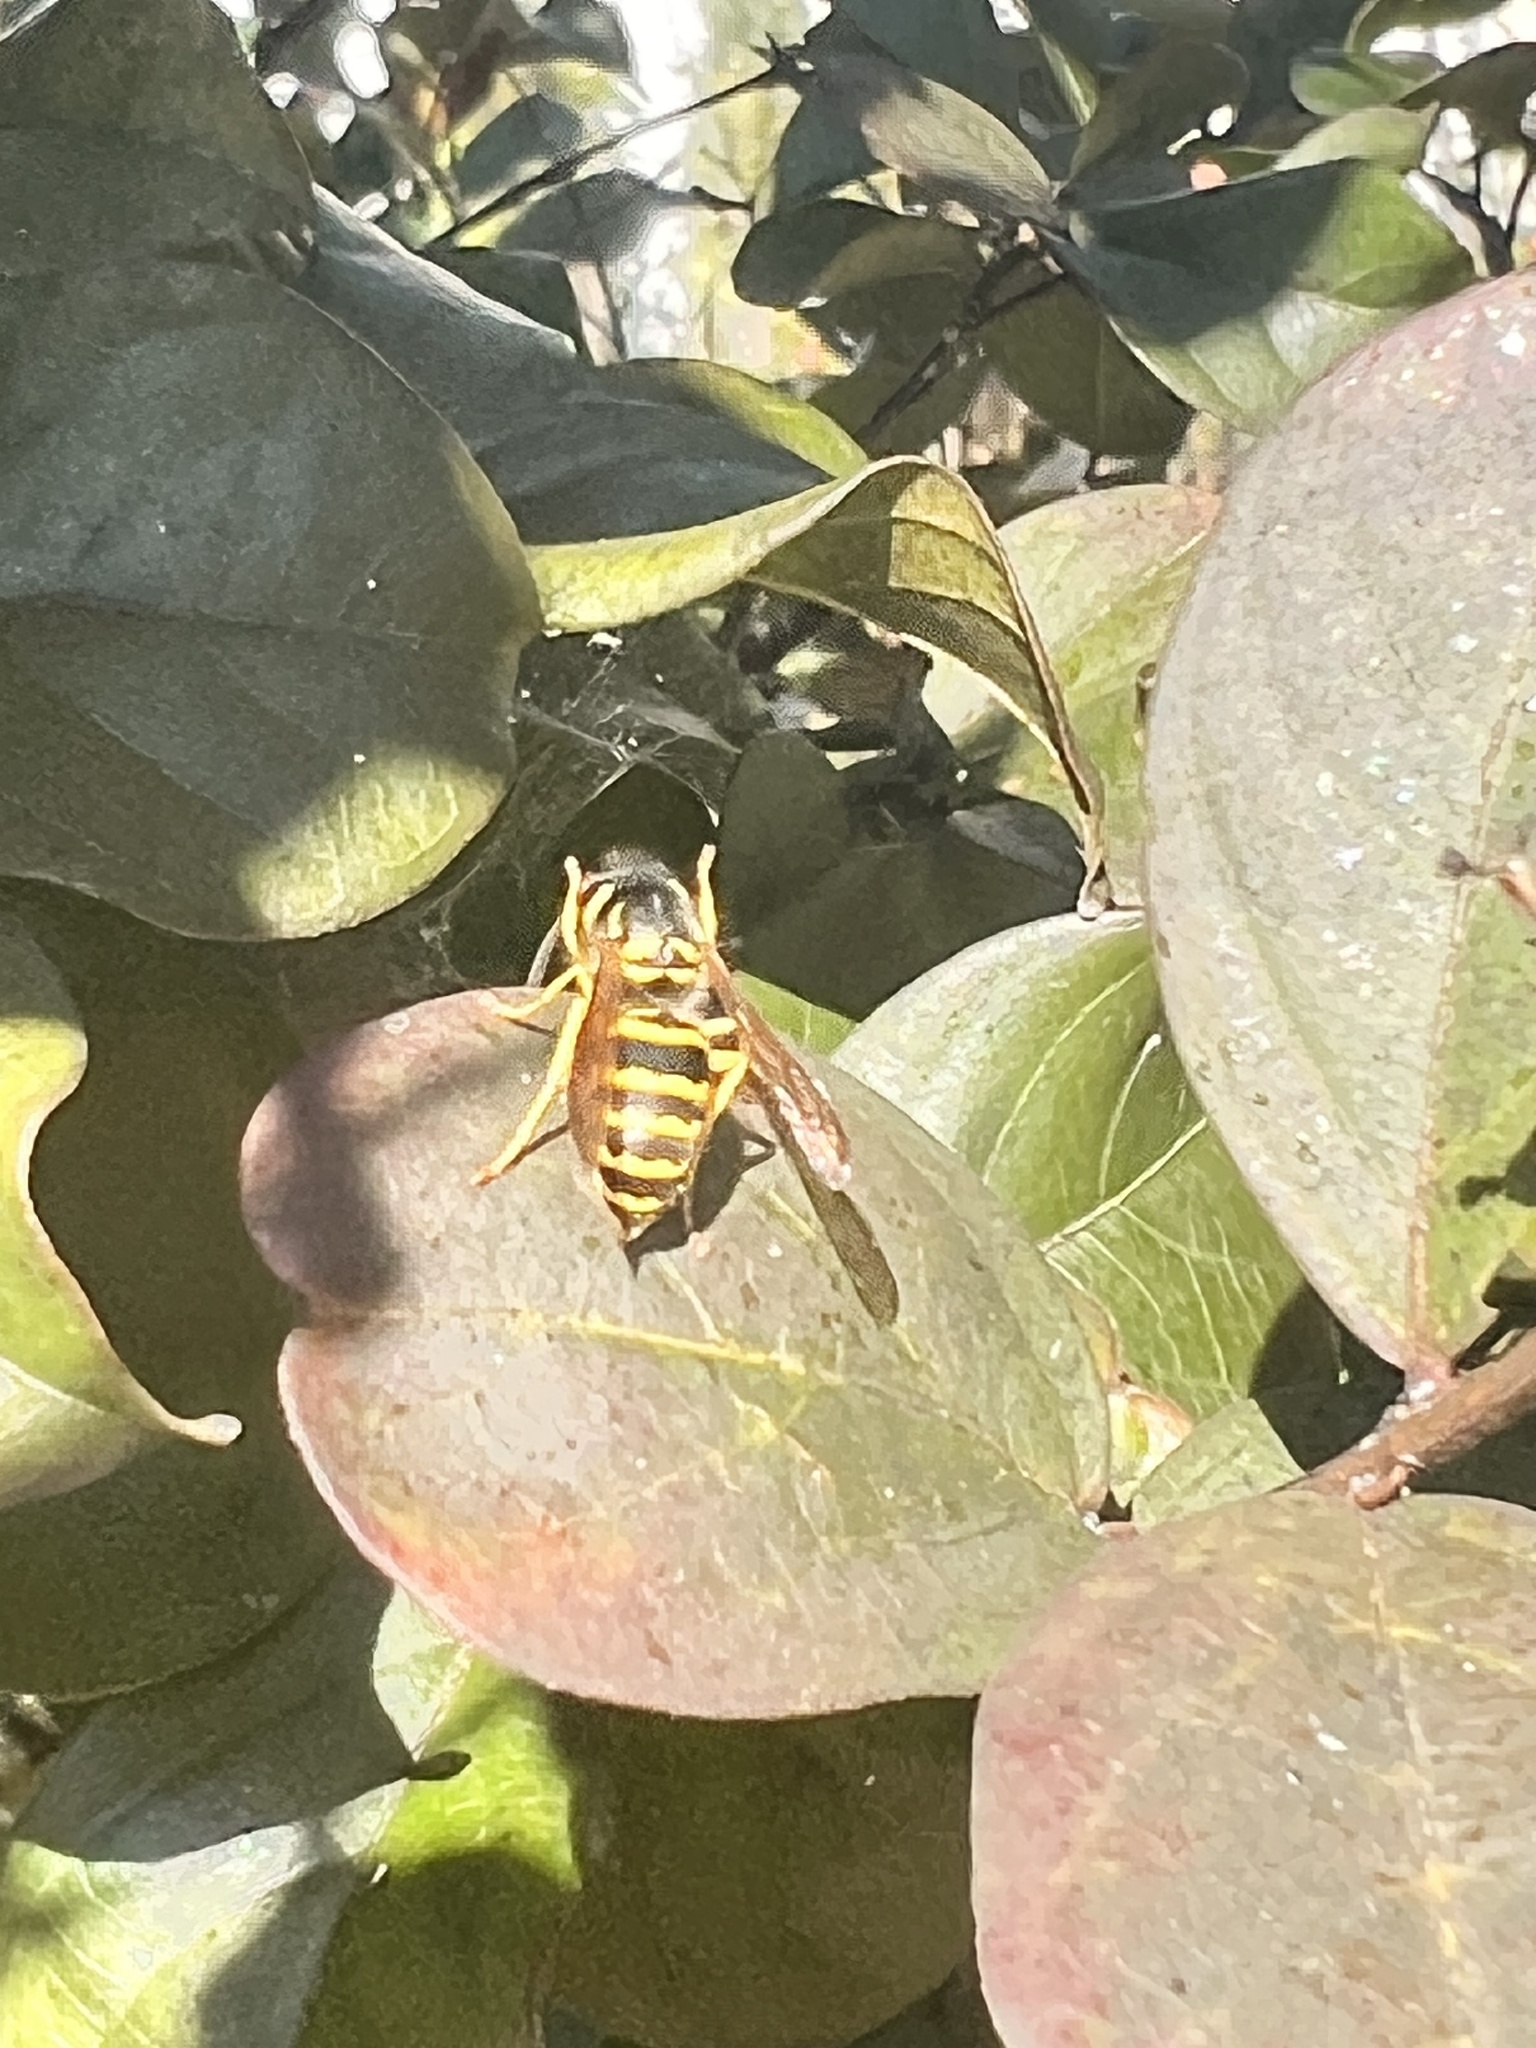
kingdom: Animalia
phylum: Arthropoda
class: Insecta
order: Hymenoptera
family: Vespidae
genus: Vespula
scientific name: Vespula maculifrons
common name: Eastern yellowjacket
